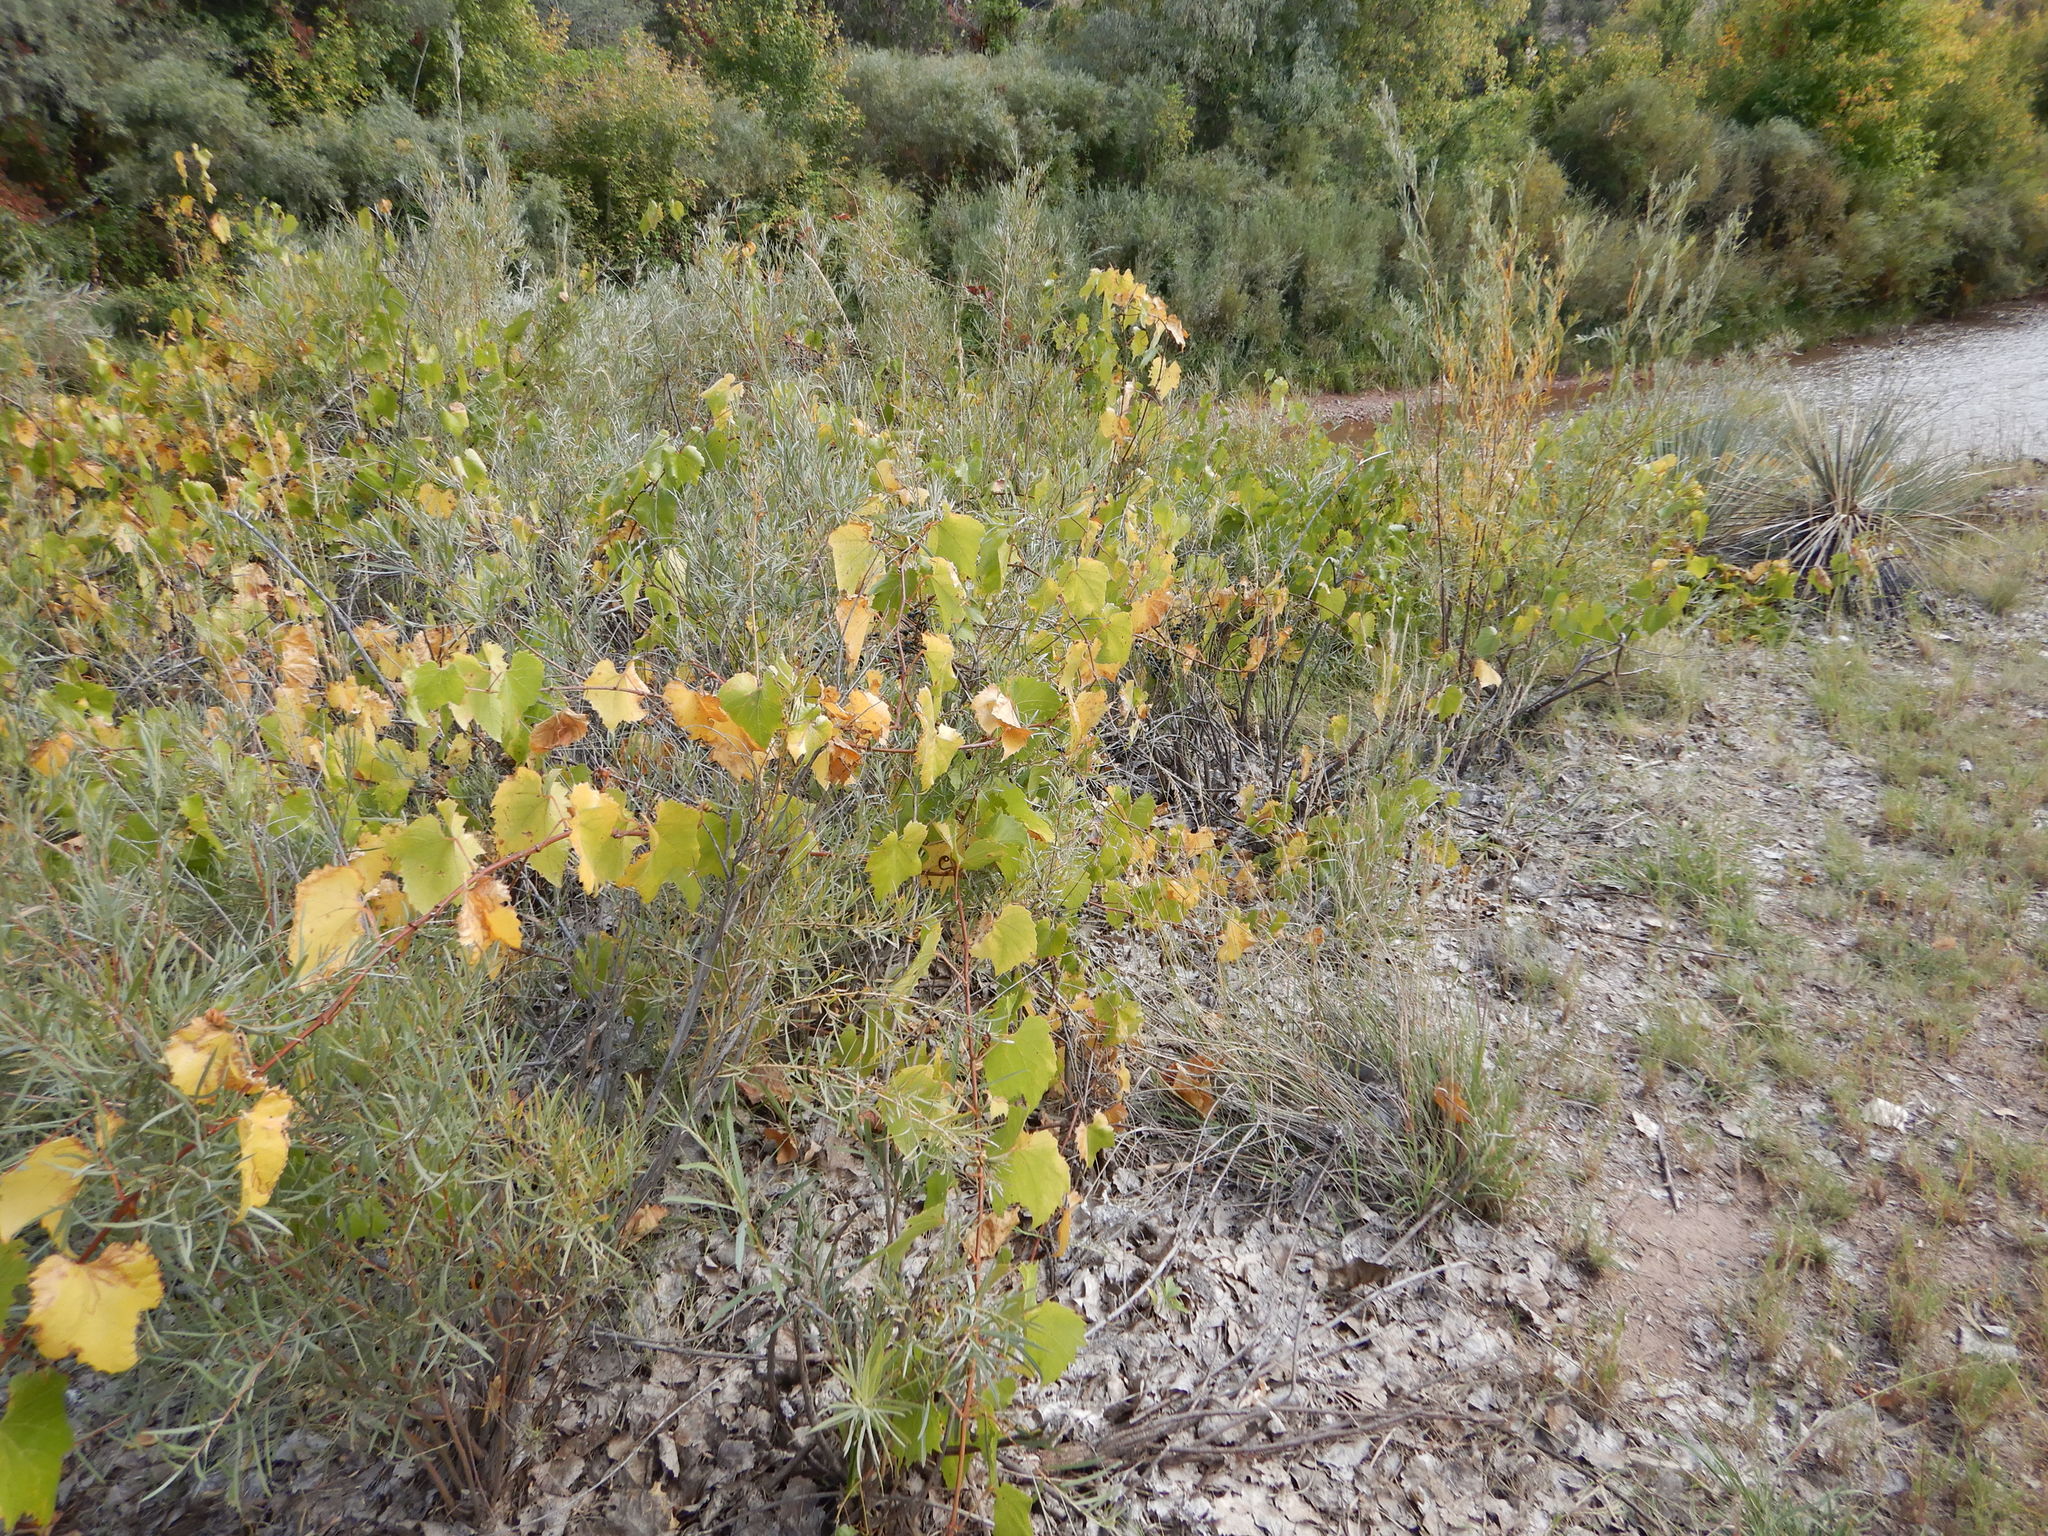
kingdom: Plantae
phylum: Tracheophyta
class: Magnoliopsida
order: Vitales
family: Vitaceae
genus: Vitis
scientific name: Vitis acerifolia
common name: Bush grape
